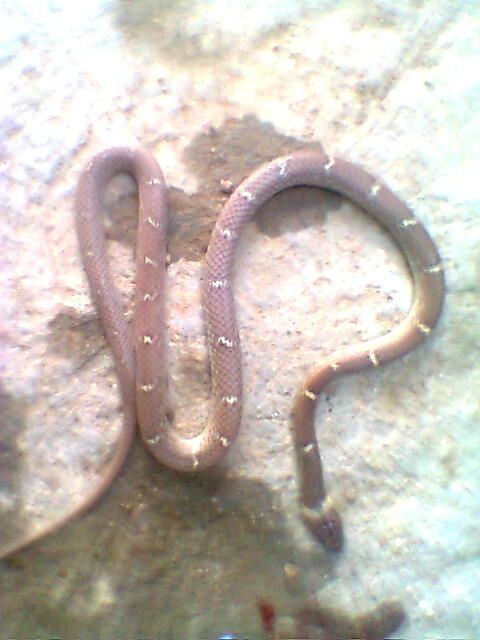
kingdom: Animalia
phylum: Chordata
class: Squamata
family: Colubridae
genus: Lycodon
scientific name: Lycodon aulicus
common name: Common wolf snake
